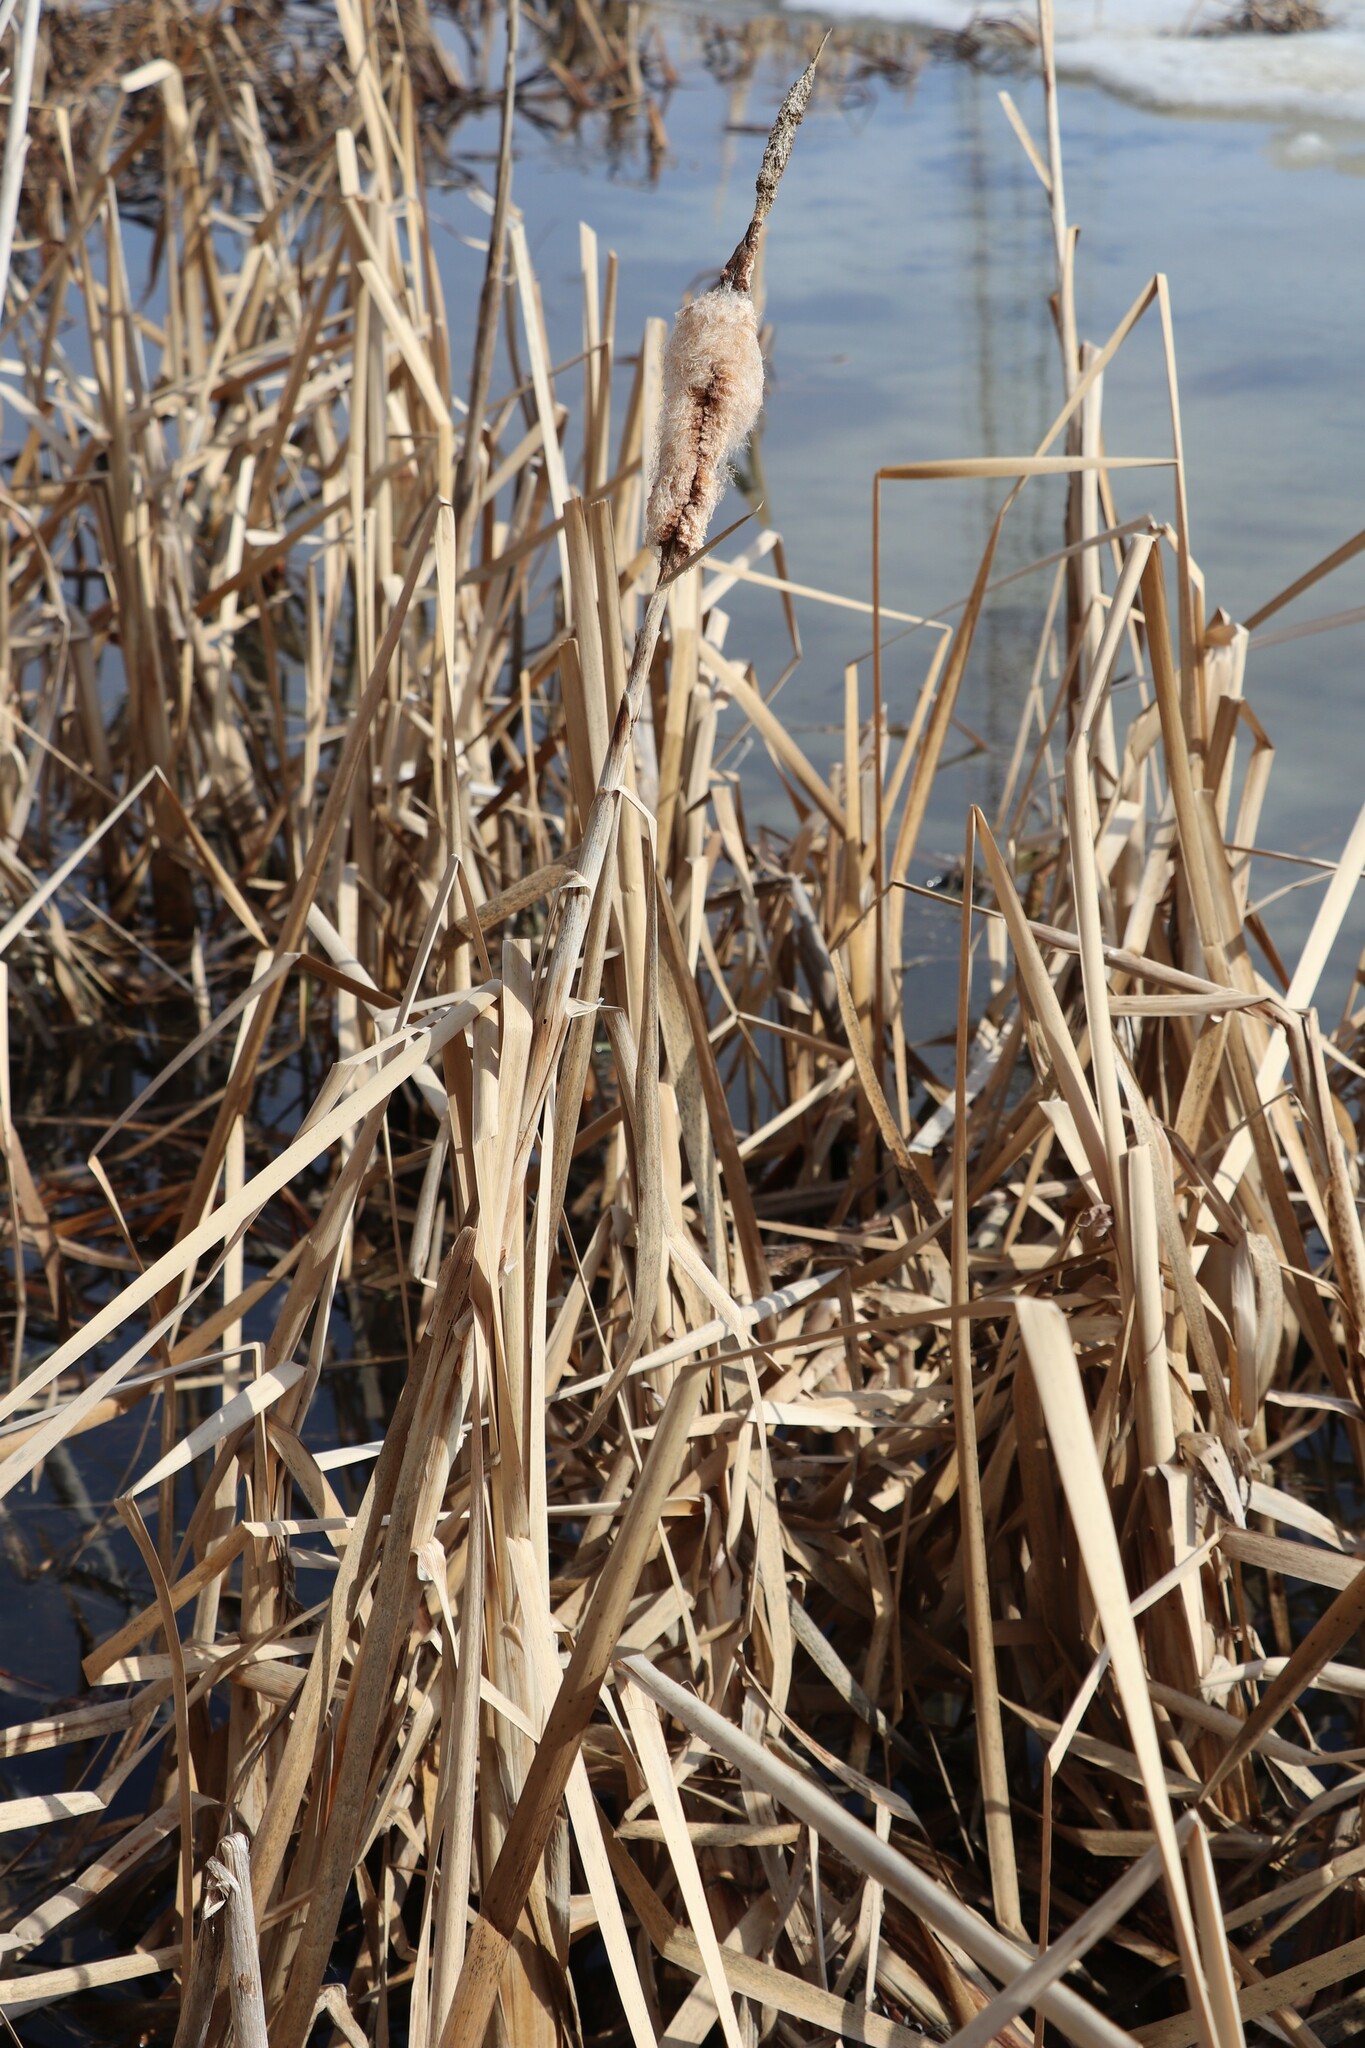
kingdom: Plantae
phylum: Tracheophyta
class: Liliopsida
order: Poales
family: Typhaceae
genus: Typha
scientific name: Typha latifolia
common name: Broadleaf cattail
